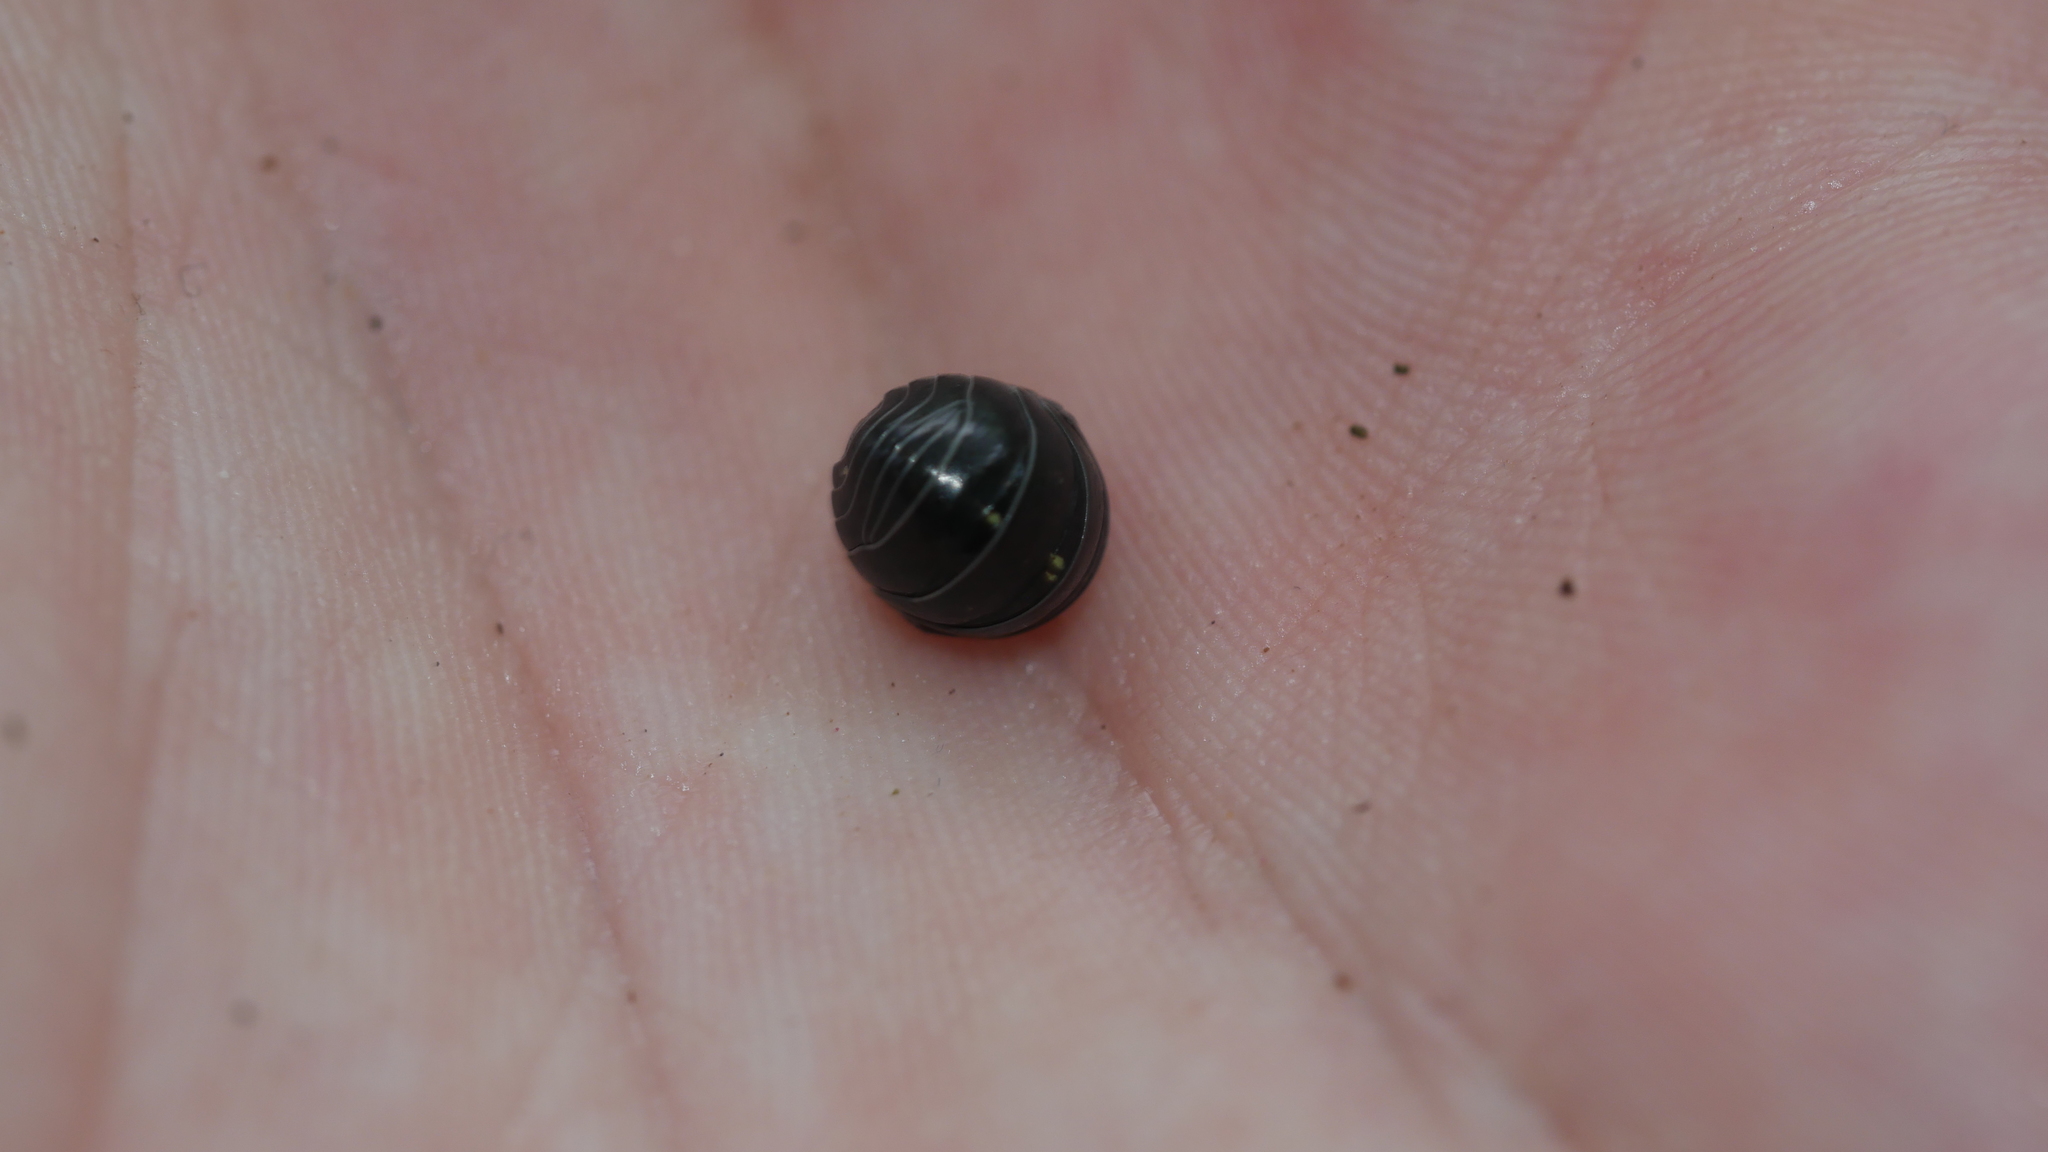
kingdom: Animalia
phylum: Arthropoda
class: Malacostraca
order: Isopoda
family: Armadillidiidae
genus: Armadillidium
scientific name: Armadillidium vulgare
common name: Common pill woodlouse
